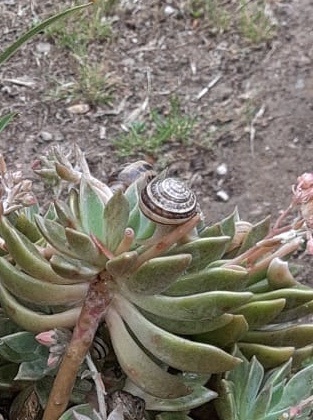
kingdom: Animalia
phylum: Mollusca
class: Gastropoda
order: Stylommatophora
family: Helicidae
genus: Eobania
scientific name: Eobania vermiculata
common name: Chocolateband snail
